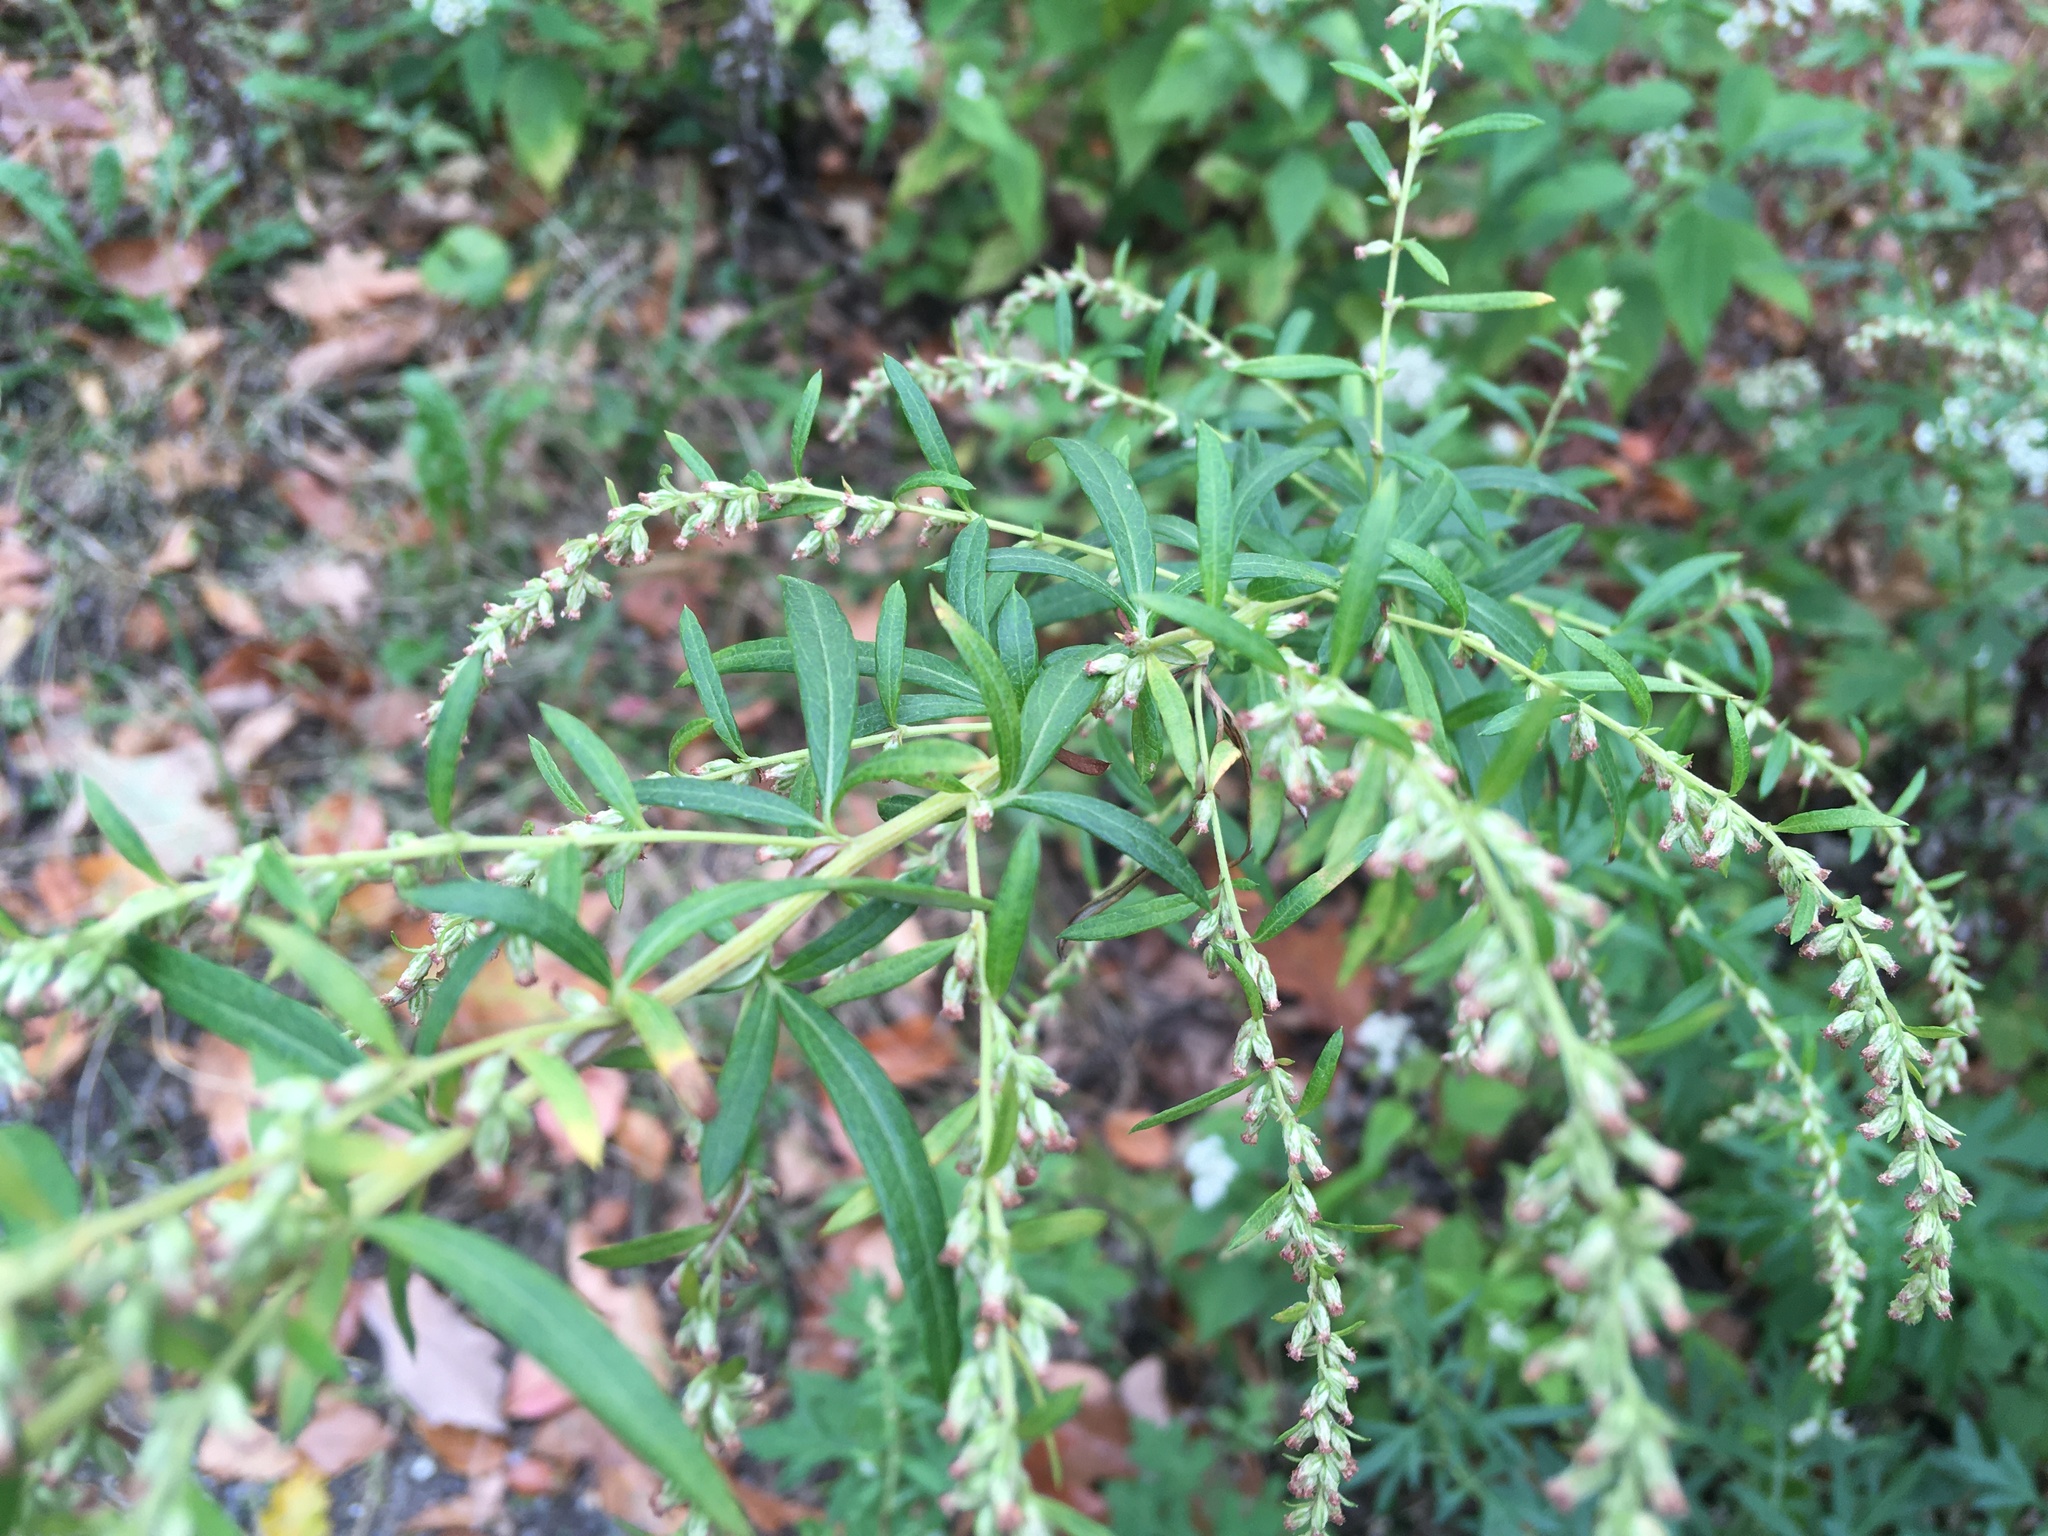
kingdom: Plantae
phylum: Tracheophyta
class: Magnoliopsida
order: Asterales
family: Asteraceae
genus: Artemisia
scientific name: Artemisia vulgaris
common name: Mugwort
